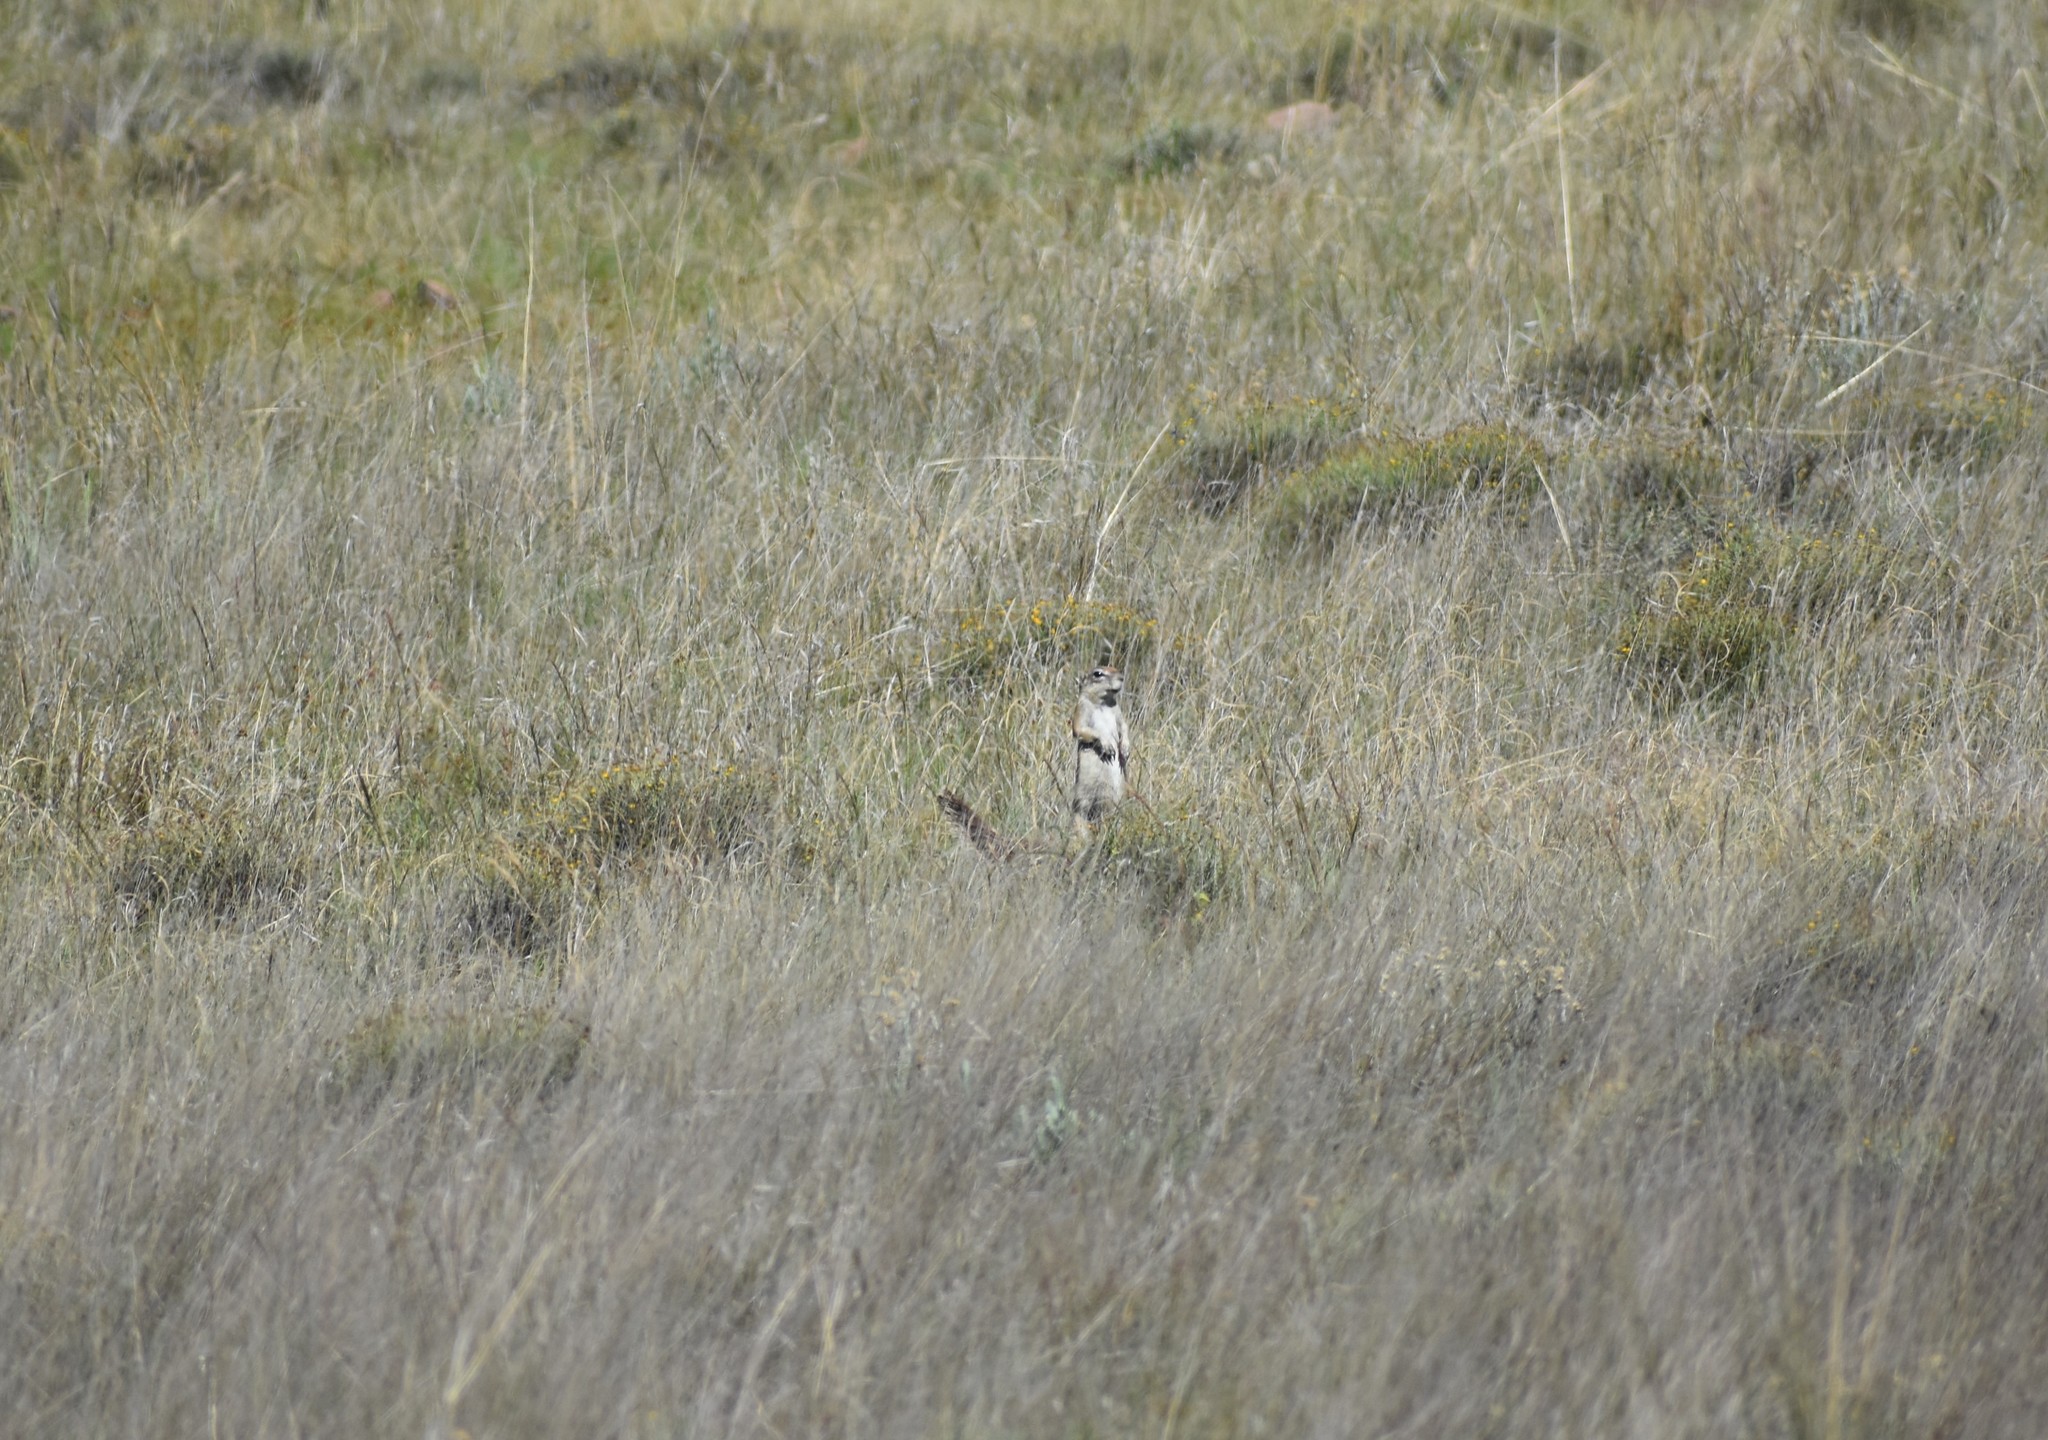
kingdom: Animalia
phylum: Chordata
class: Mammalia
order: Rodentia
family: Sciuridae
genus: Xerus
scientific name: Xerus inauris
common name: South african ground squirrel
